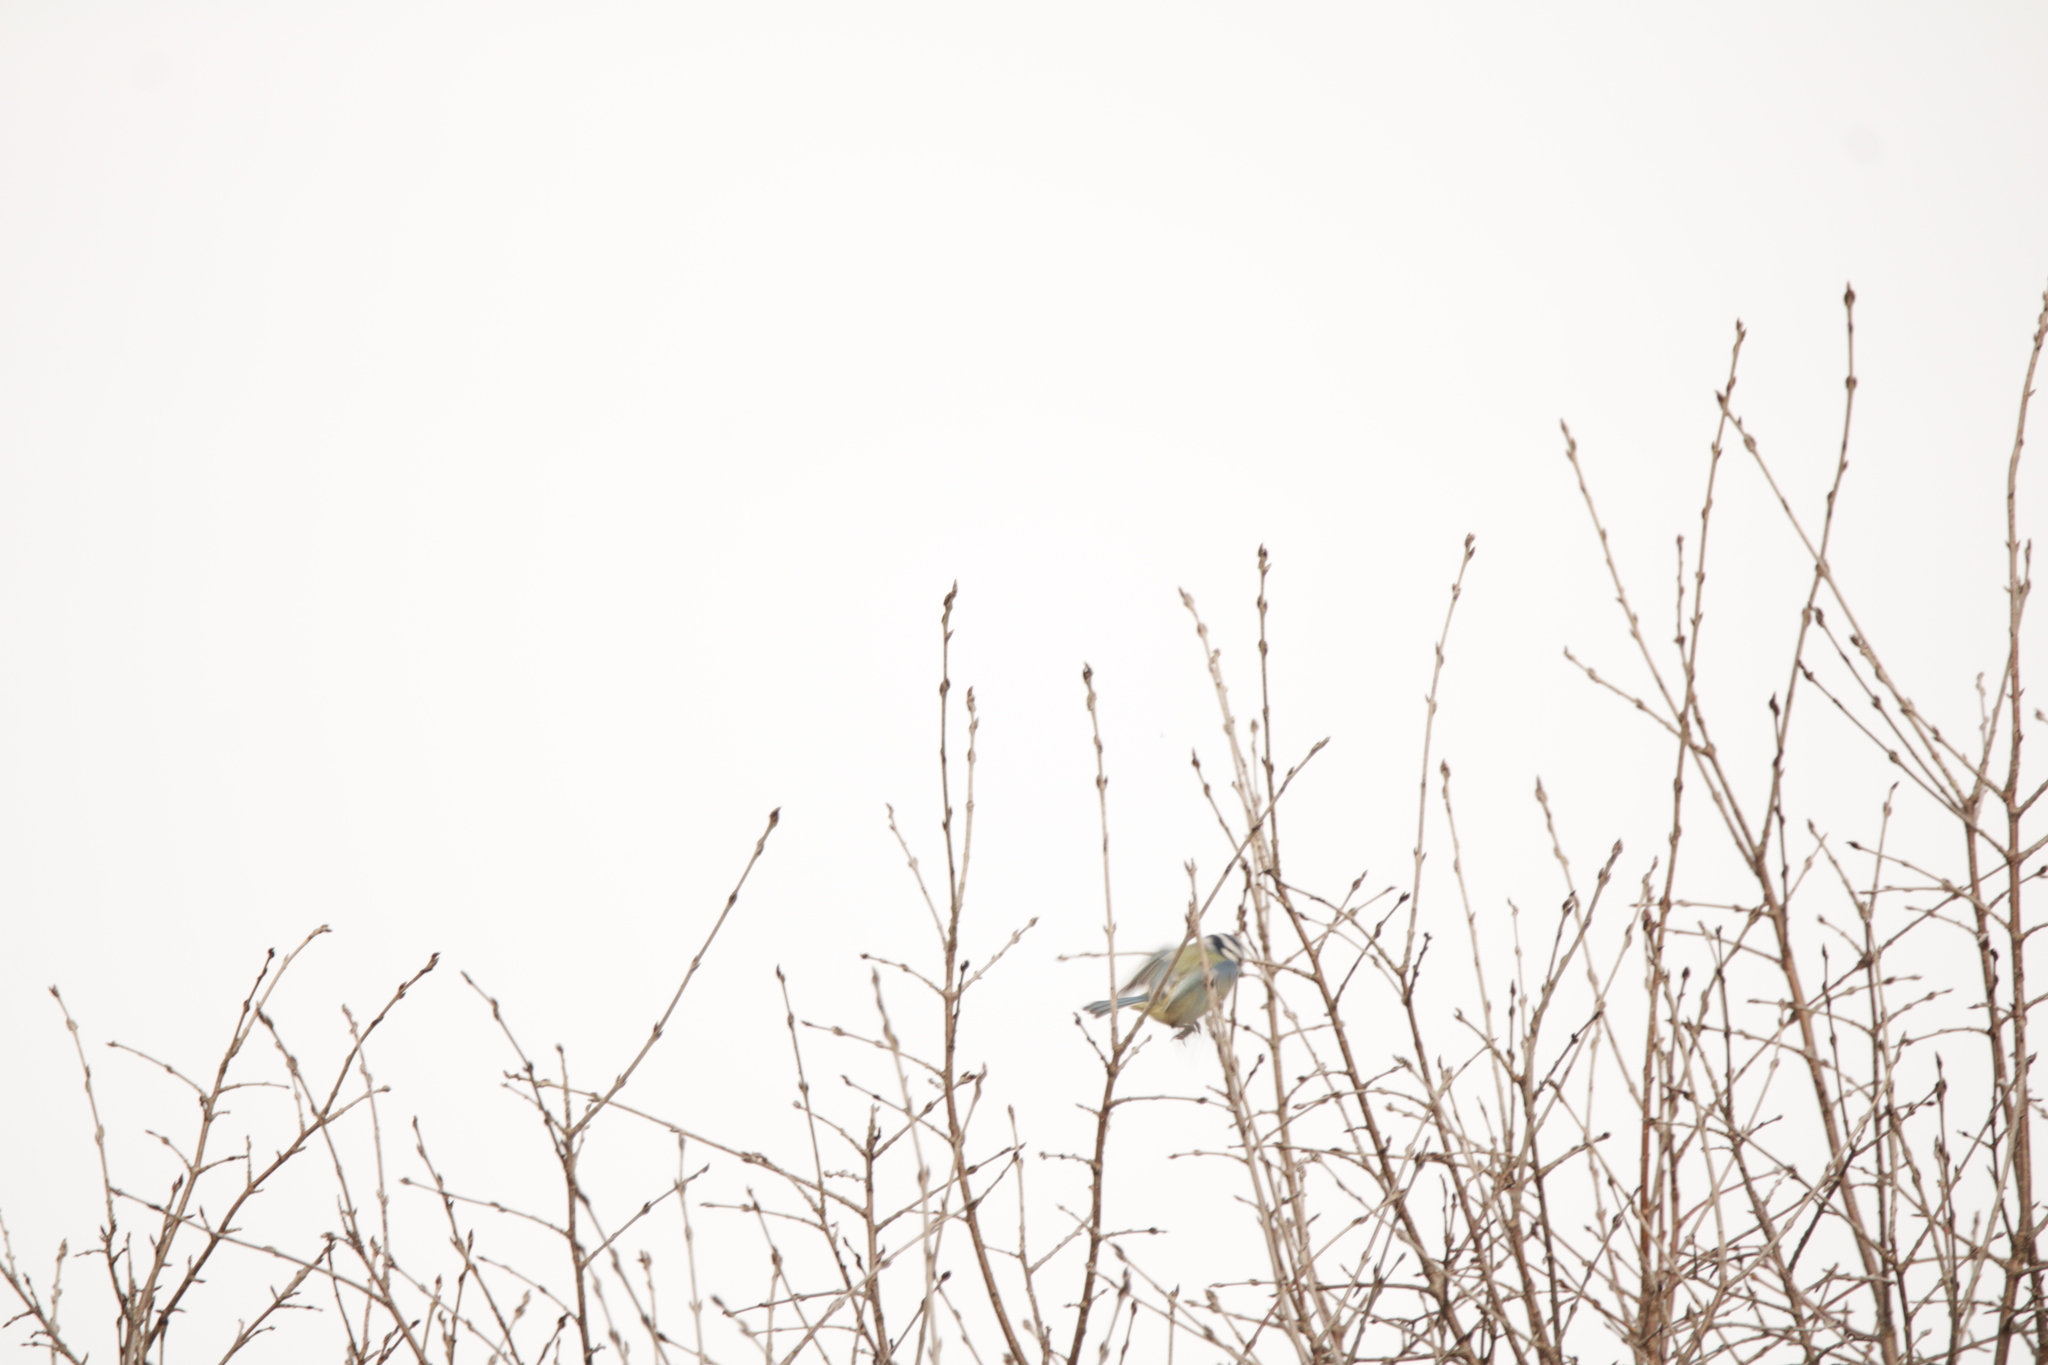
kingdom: Animalia
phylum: Chordata
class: Aves
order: Passeriformes
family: Paridae
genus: Cyanistes
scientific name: Cyanistes caeruleus
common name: Eurasian blue tit
